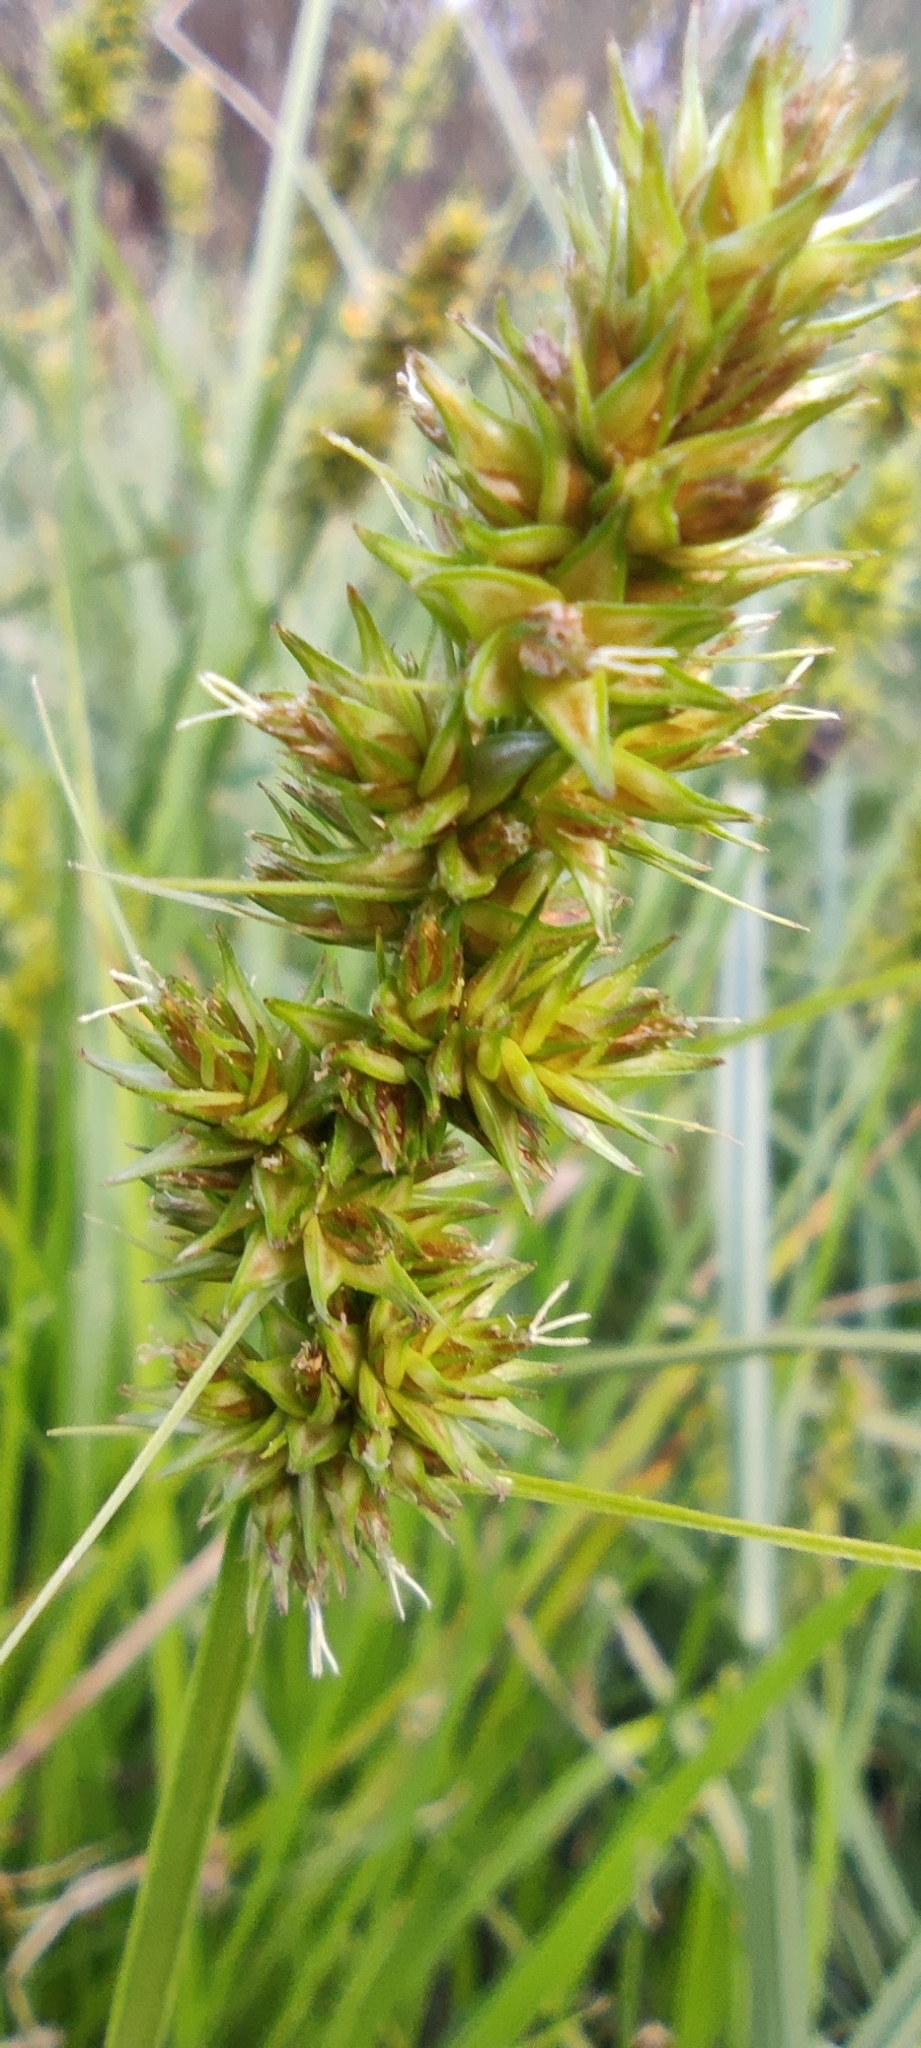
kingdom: Plantae
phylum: Tracheophyta
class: Liliopsida
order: Poales
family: Cyperaceae
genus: Carex
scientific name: Carex otrubae
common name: False fox-sedge
